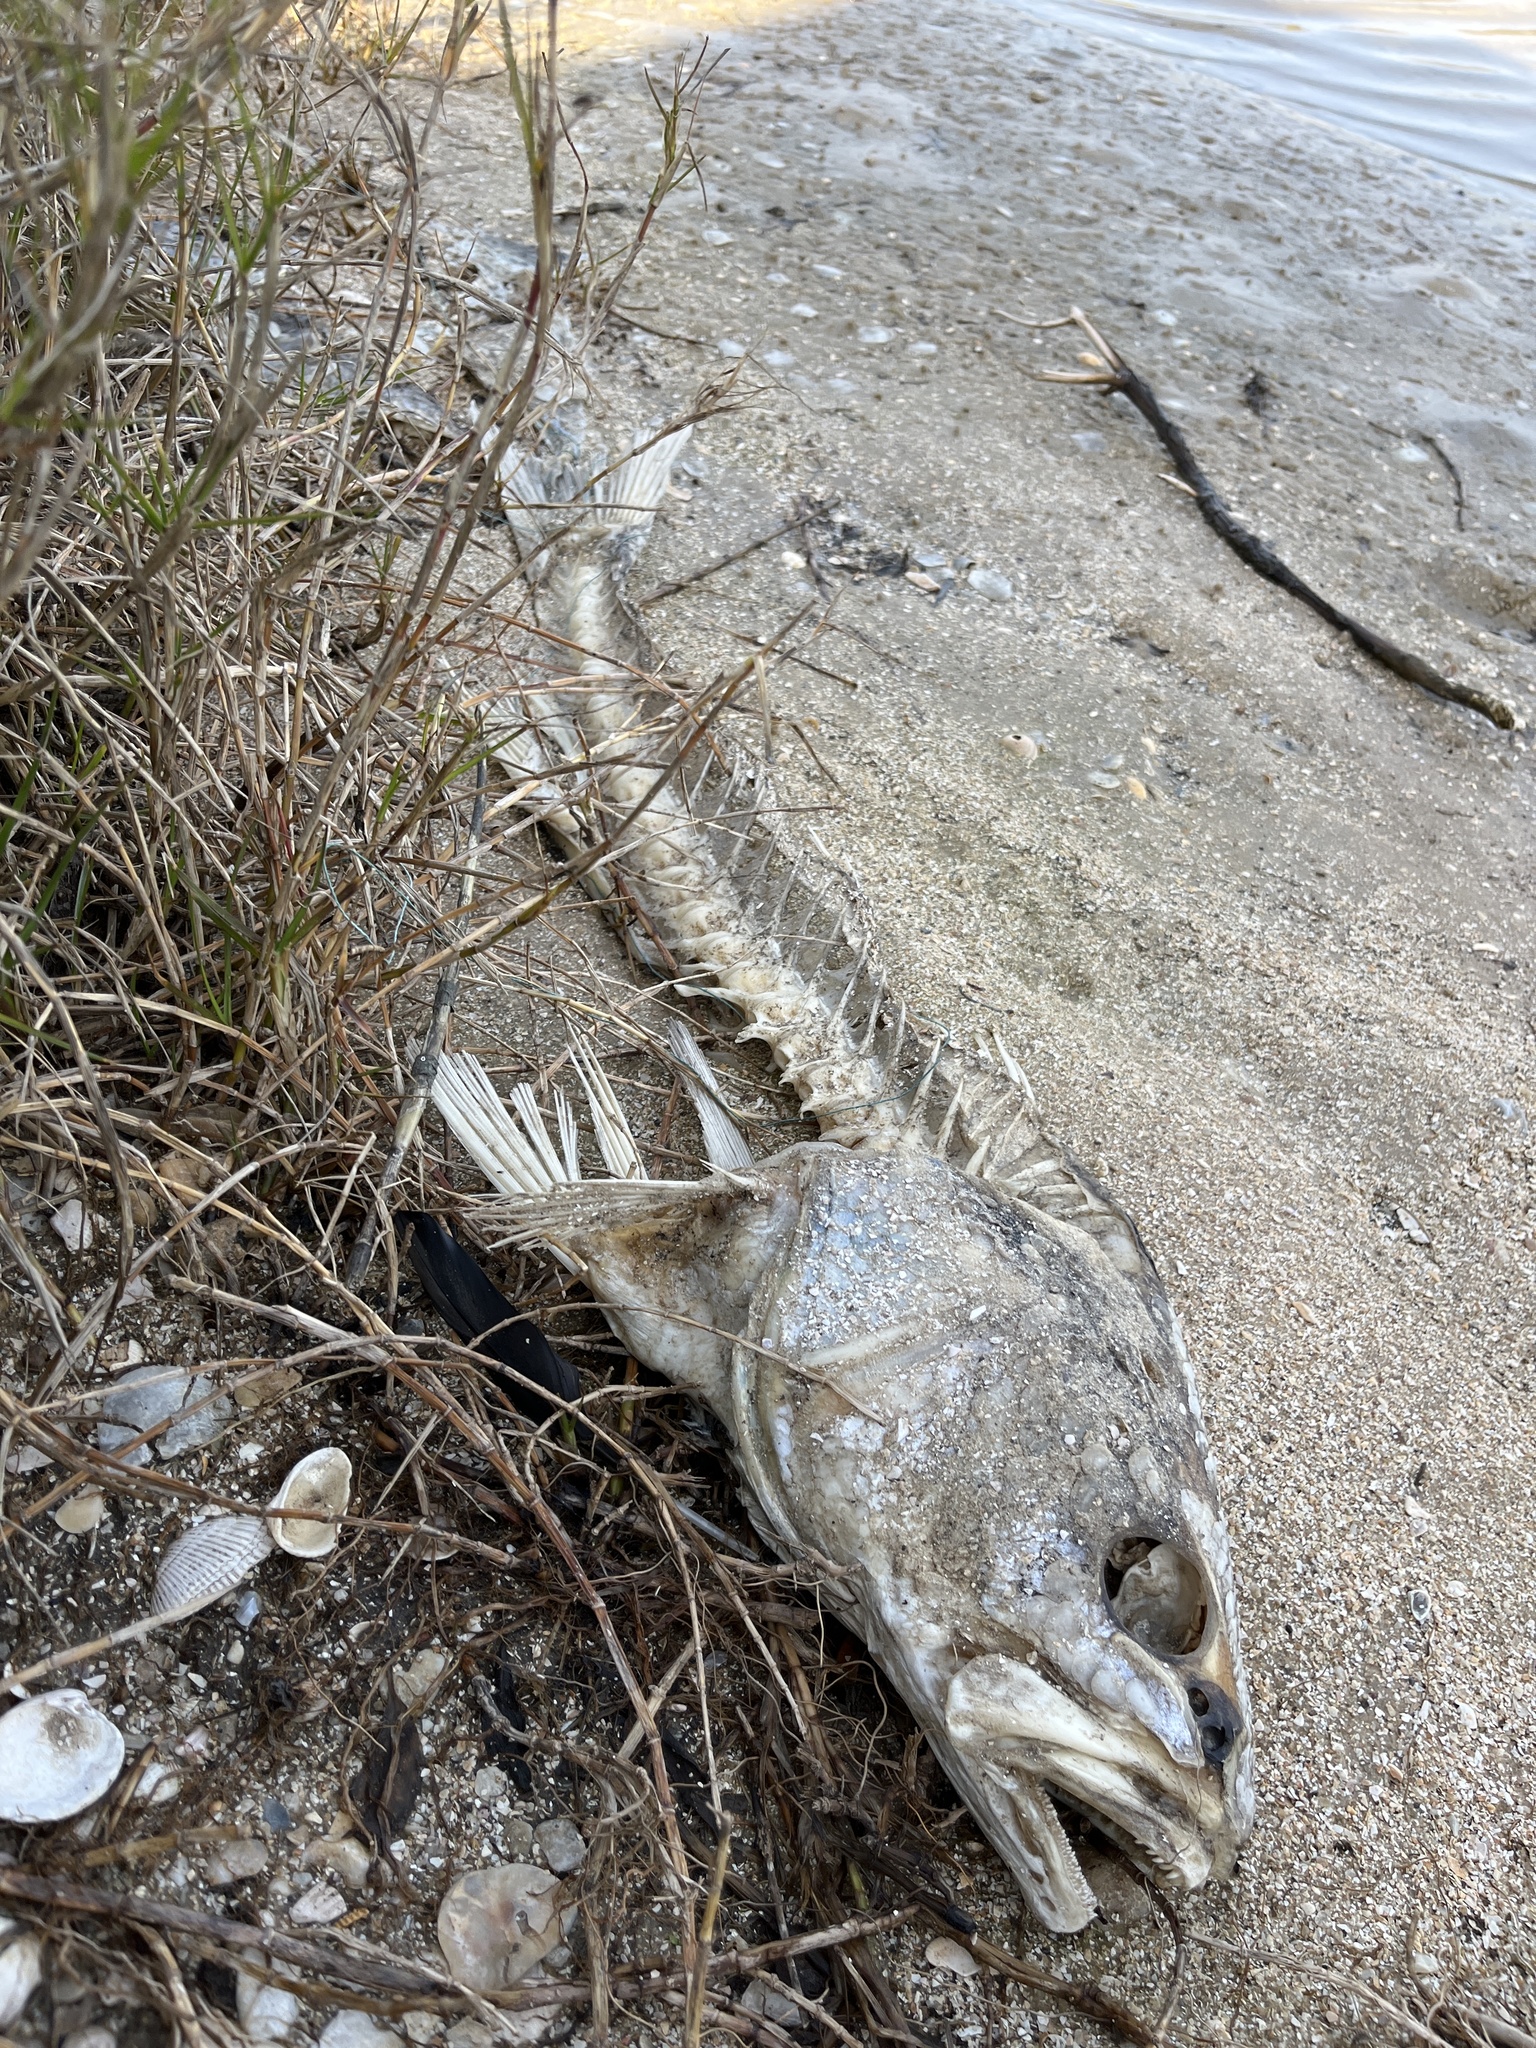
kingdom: Animalia
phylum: Chordata
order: Perciformes
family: Sciaenidae
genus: Sciaenops
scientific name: Sciaenops ocellatus
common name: Red drum
